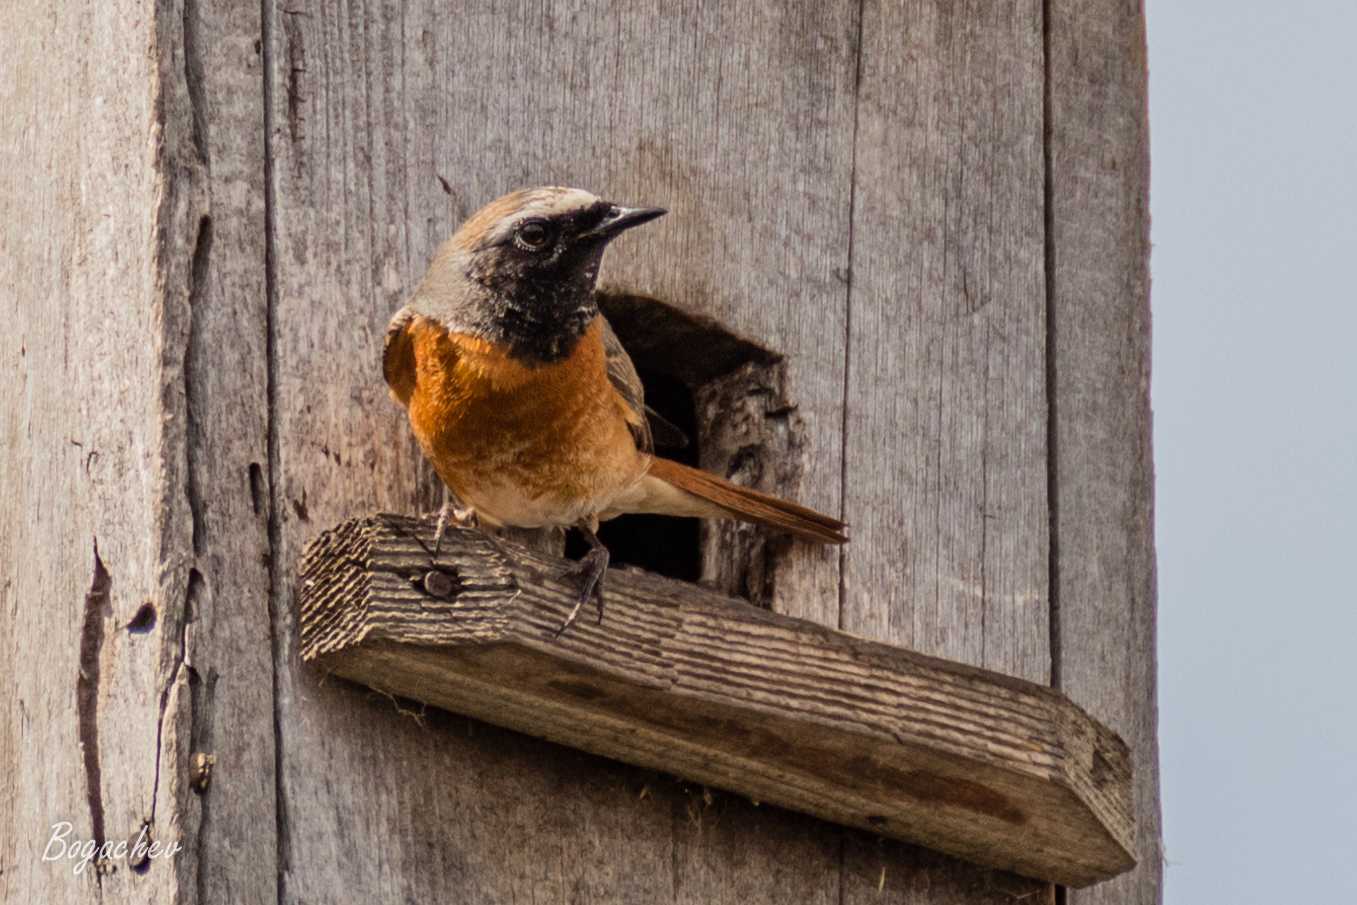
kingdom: Animalia
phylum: Chordata
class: Aves
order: Passeriformes
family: Muscicapidae
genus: Phoenicurus
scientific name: Phoenicurus phoenicurus
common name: Common redstart
